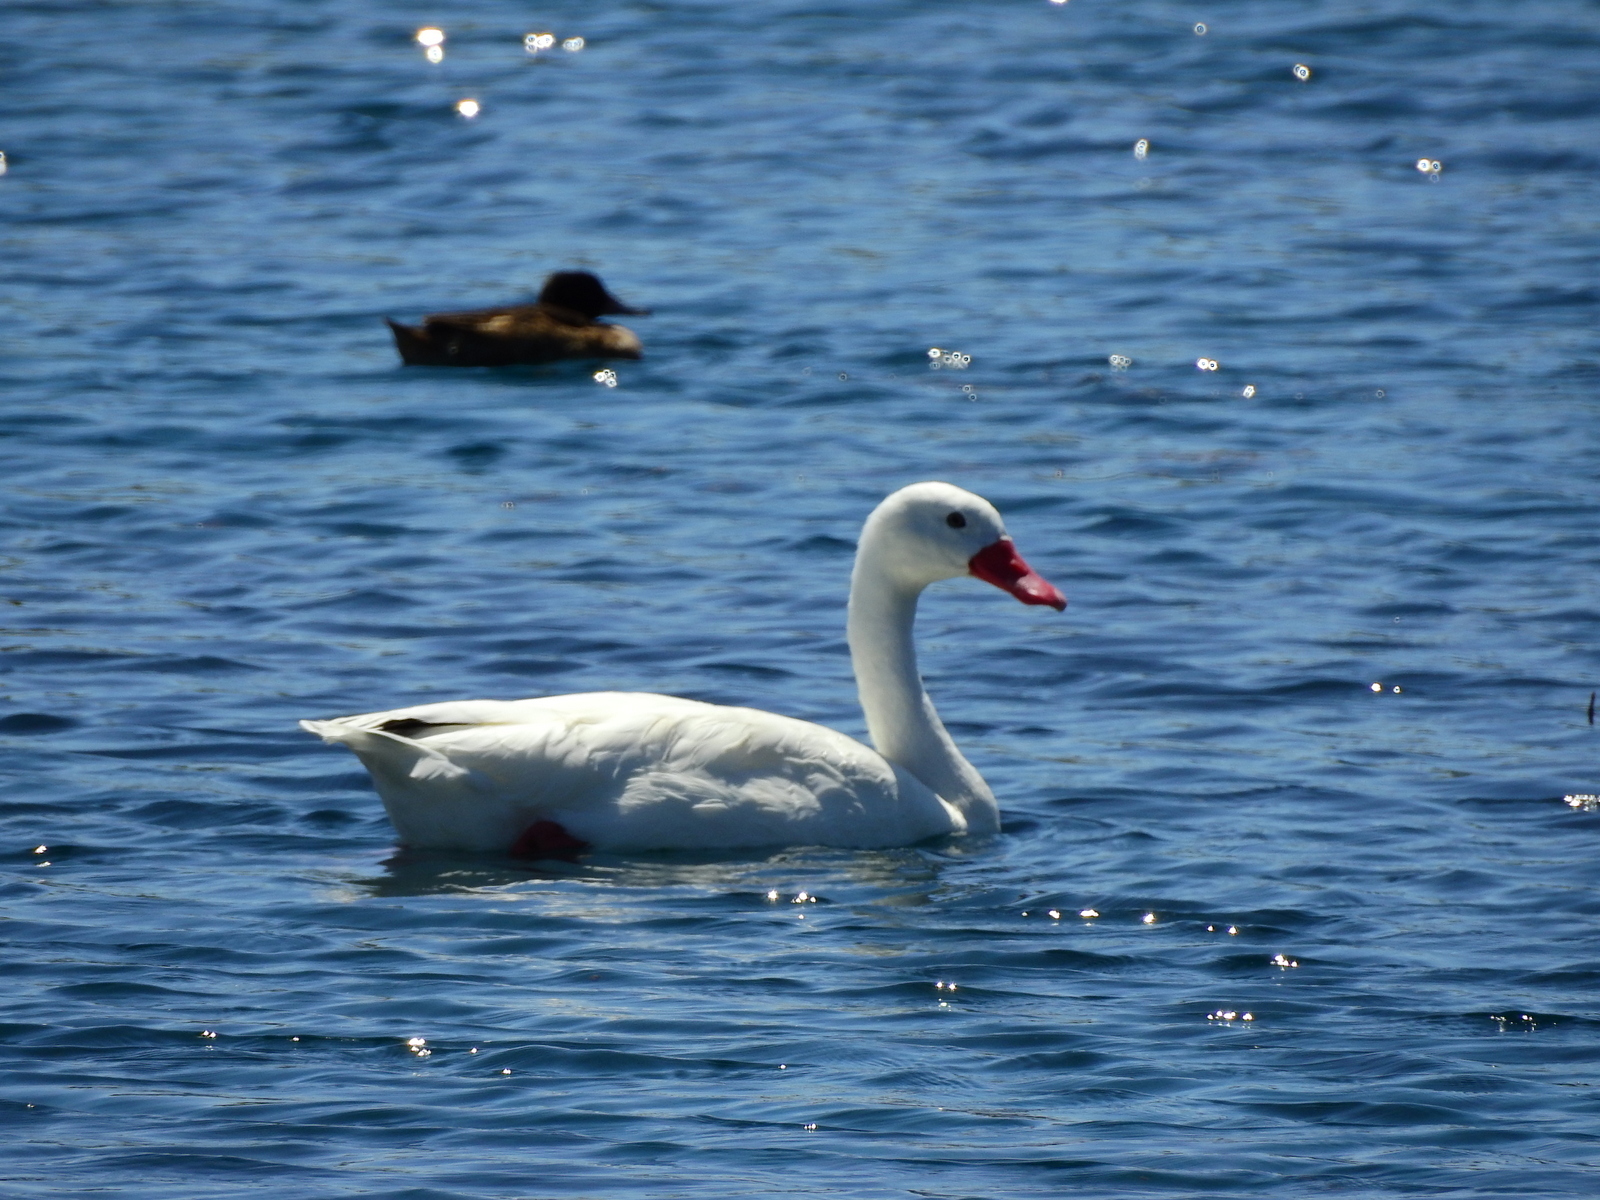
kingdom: Animalia
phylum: Chordata
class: Aves
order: Anseriformes
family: Anatidae
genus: Coscoroba
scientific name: Coscoroba coscoroba
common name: Coscoroba swan
